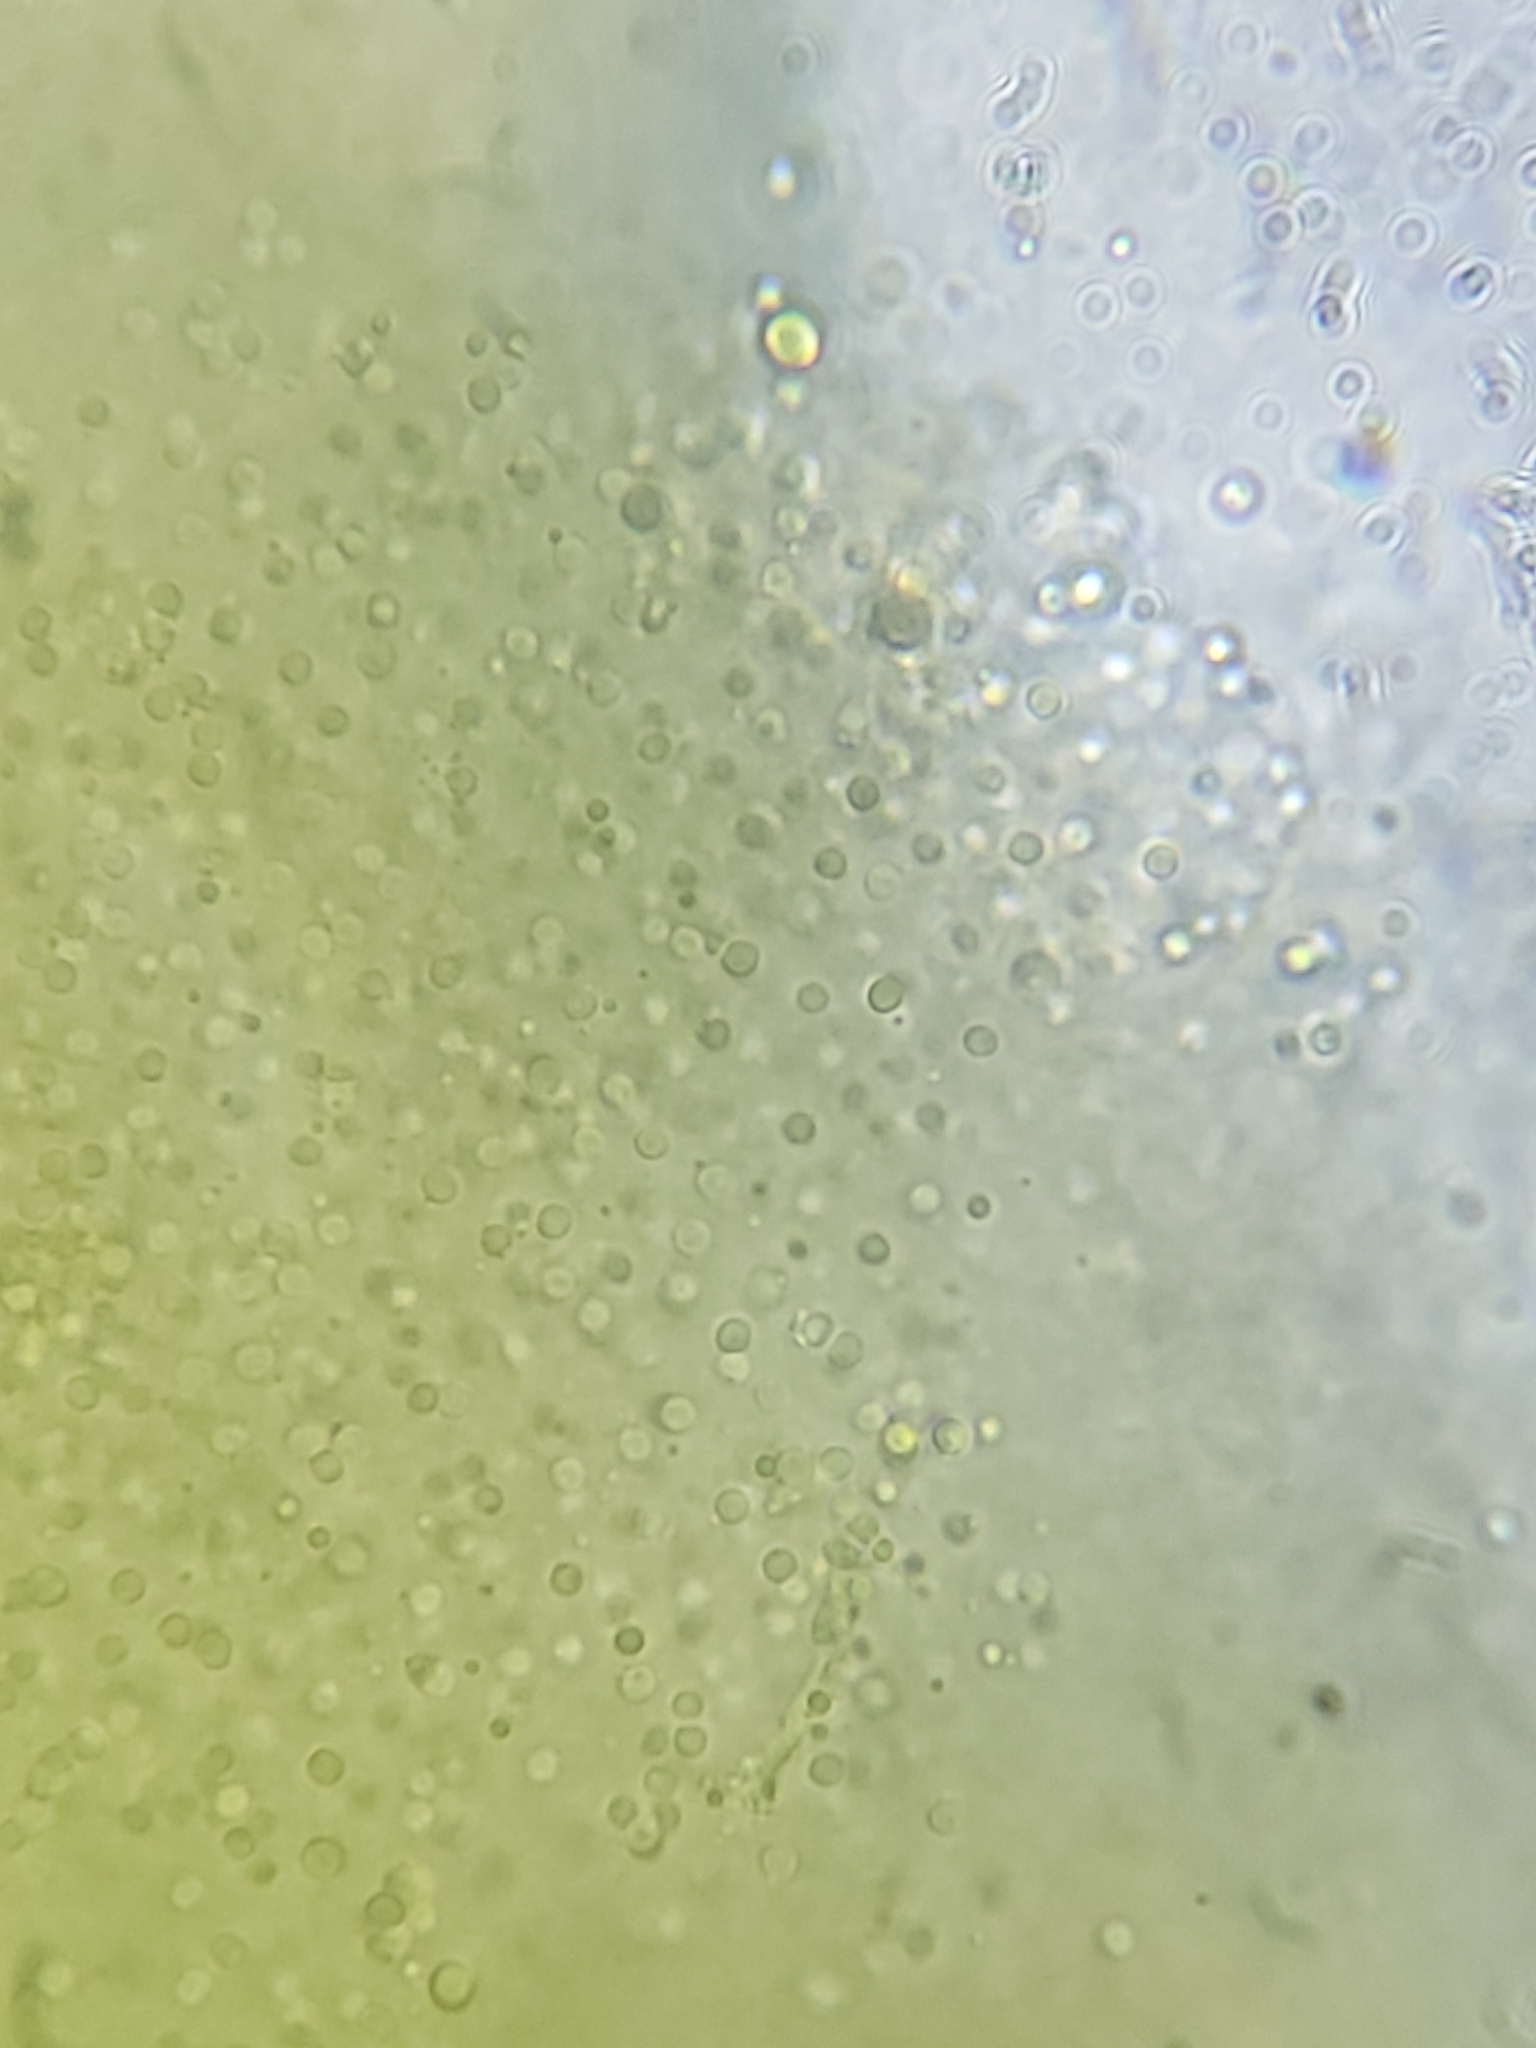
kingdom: Fungi
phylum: Ascomycota
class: Orbiliomycetes
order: Orbiliales
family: Orbiliaceae
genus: Orbilia
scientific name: Orbilia crocina
